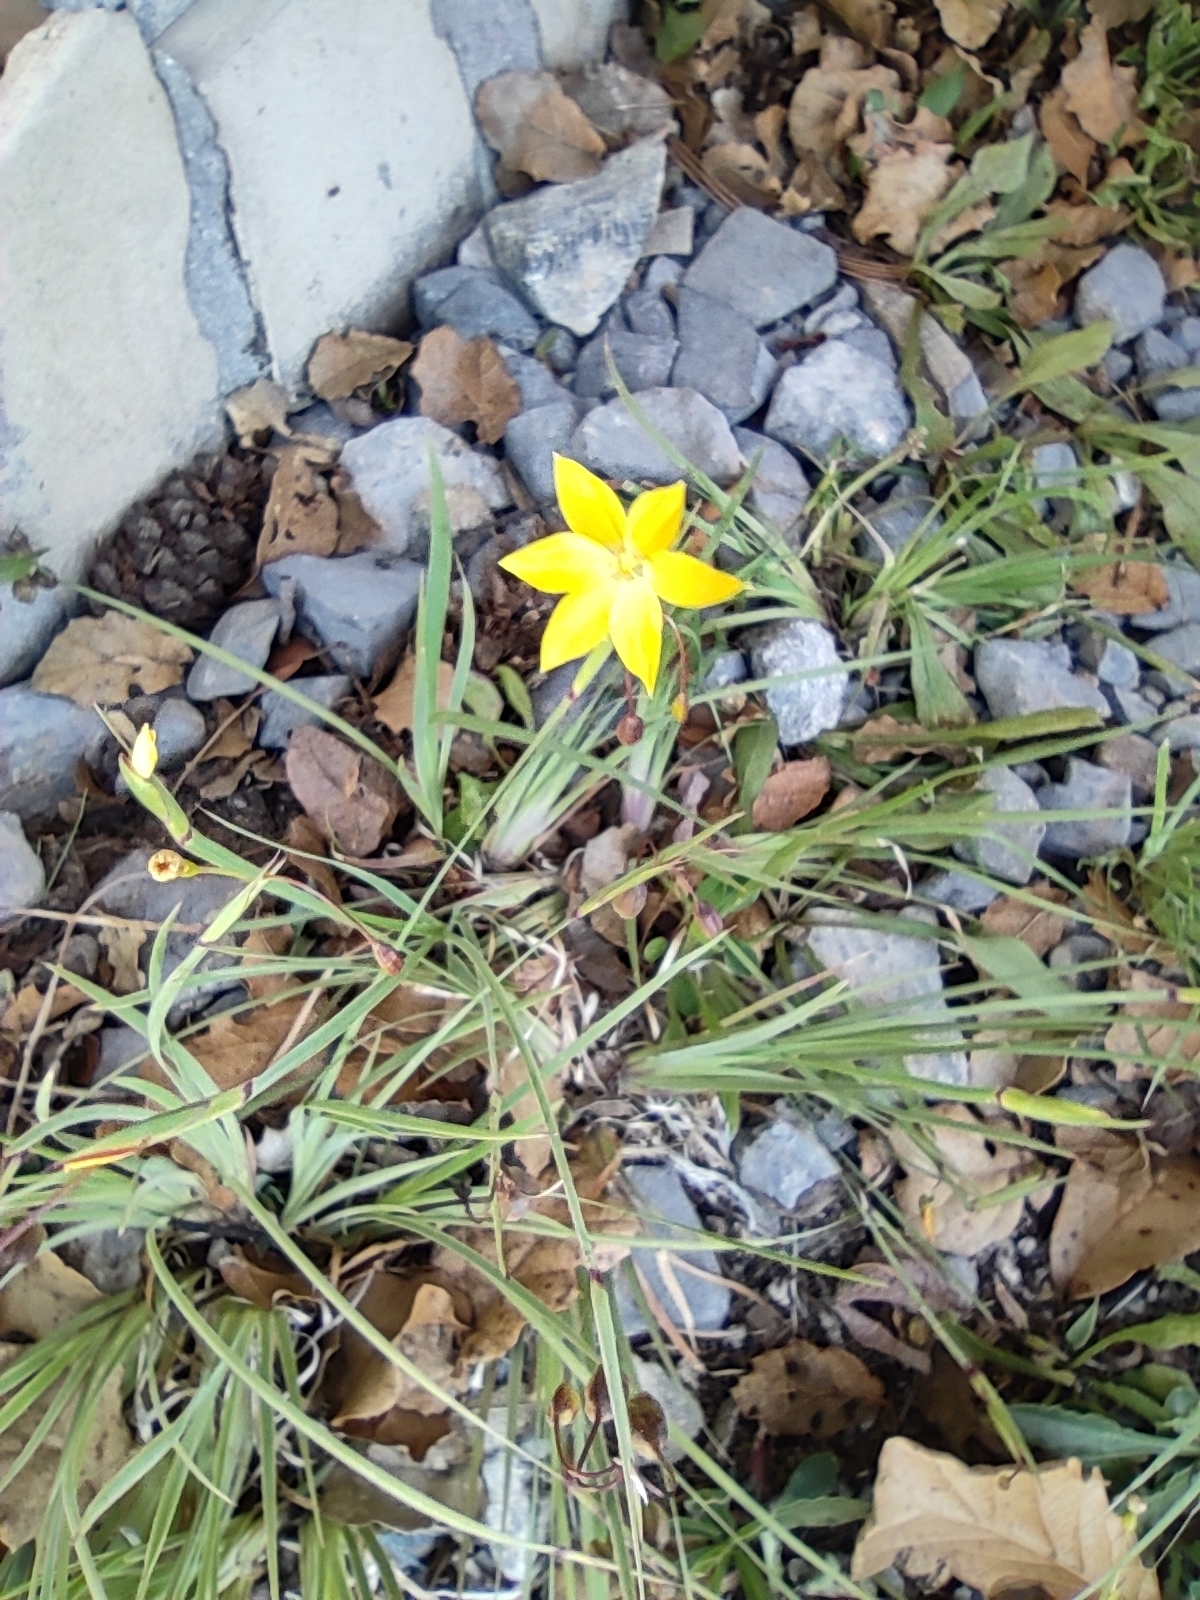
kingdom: Plantae
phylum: Tracheophyta
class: Liliopsida
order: Asparagales
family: Iridaceae
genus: Sisyrinchium
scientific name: Sisyrinchium arizonicum
